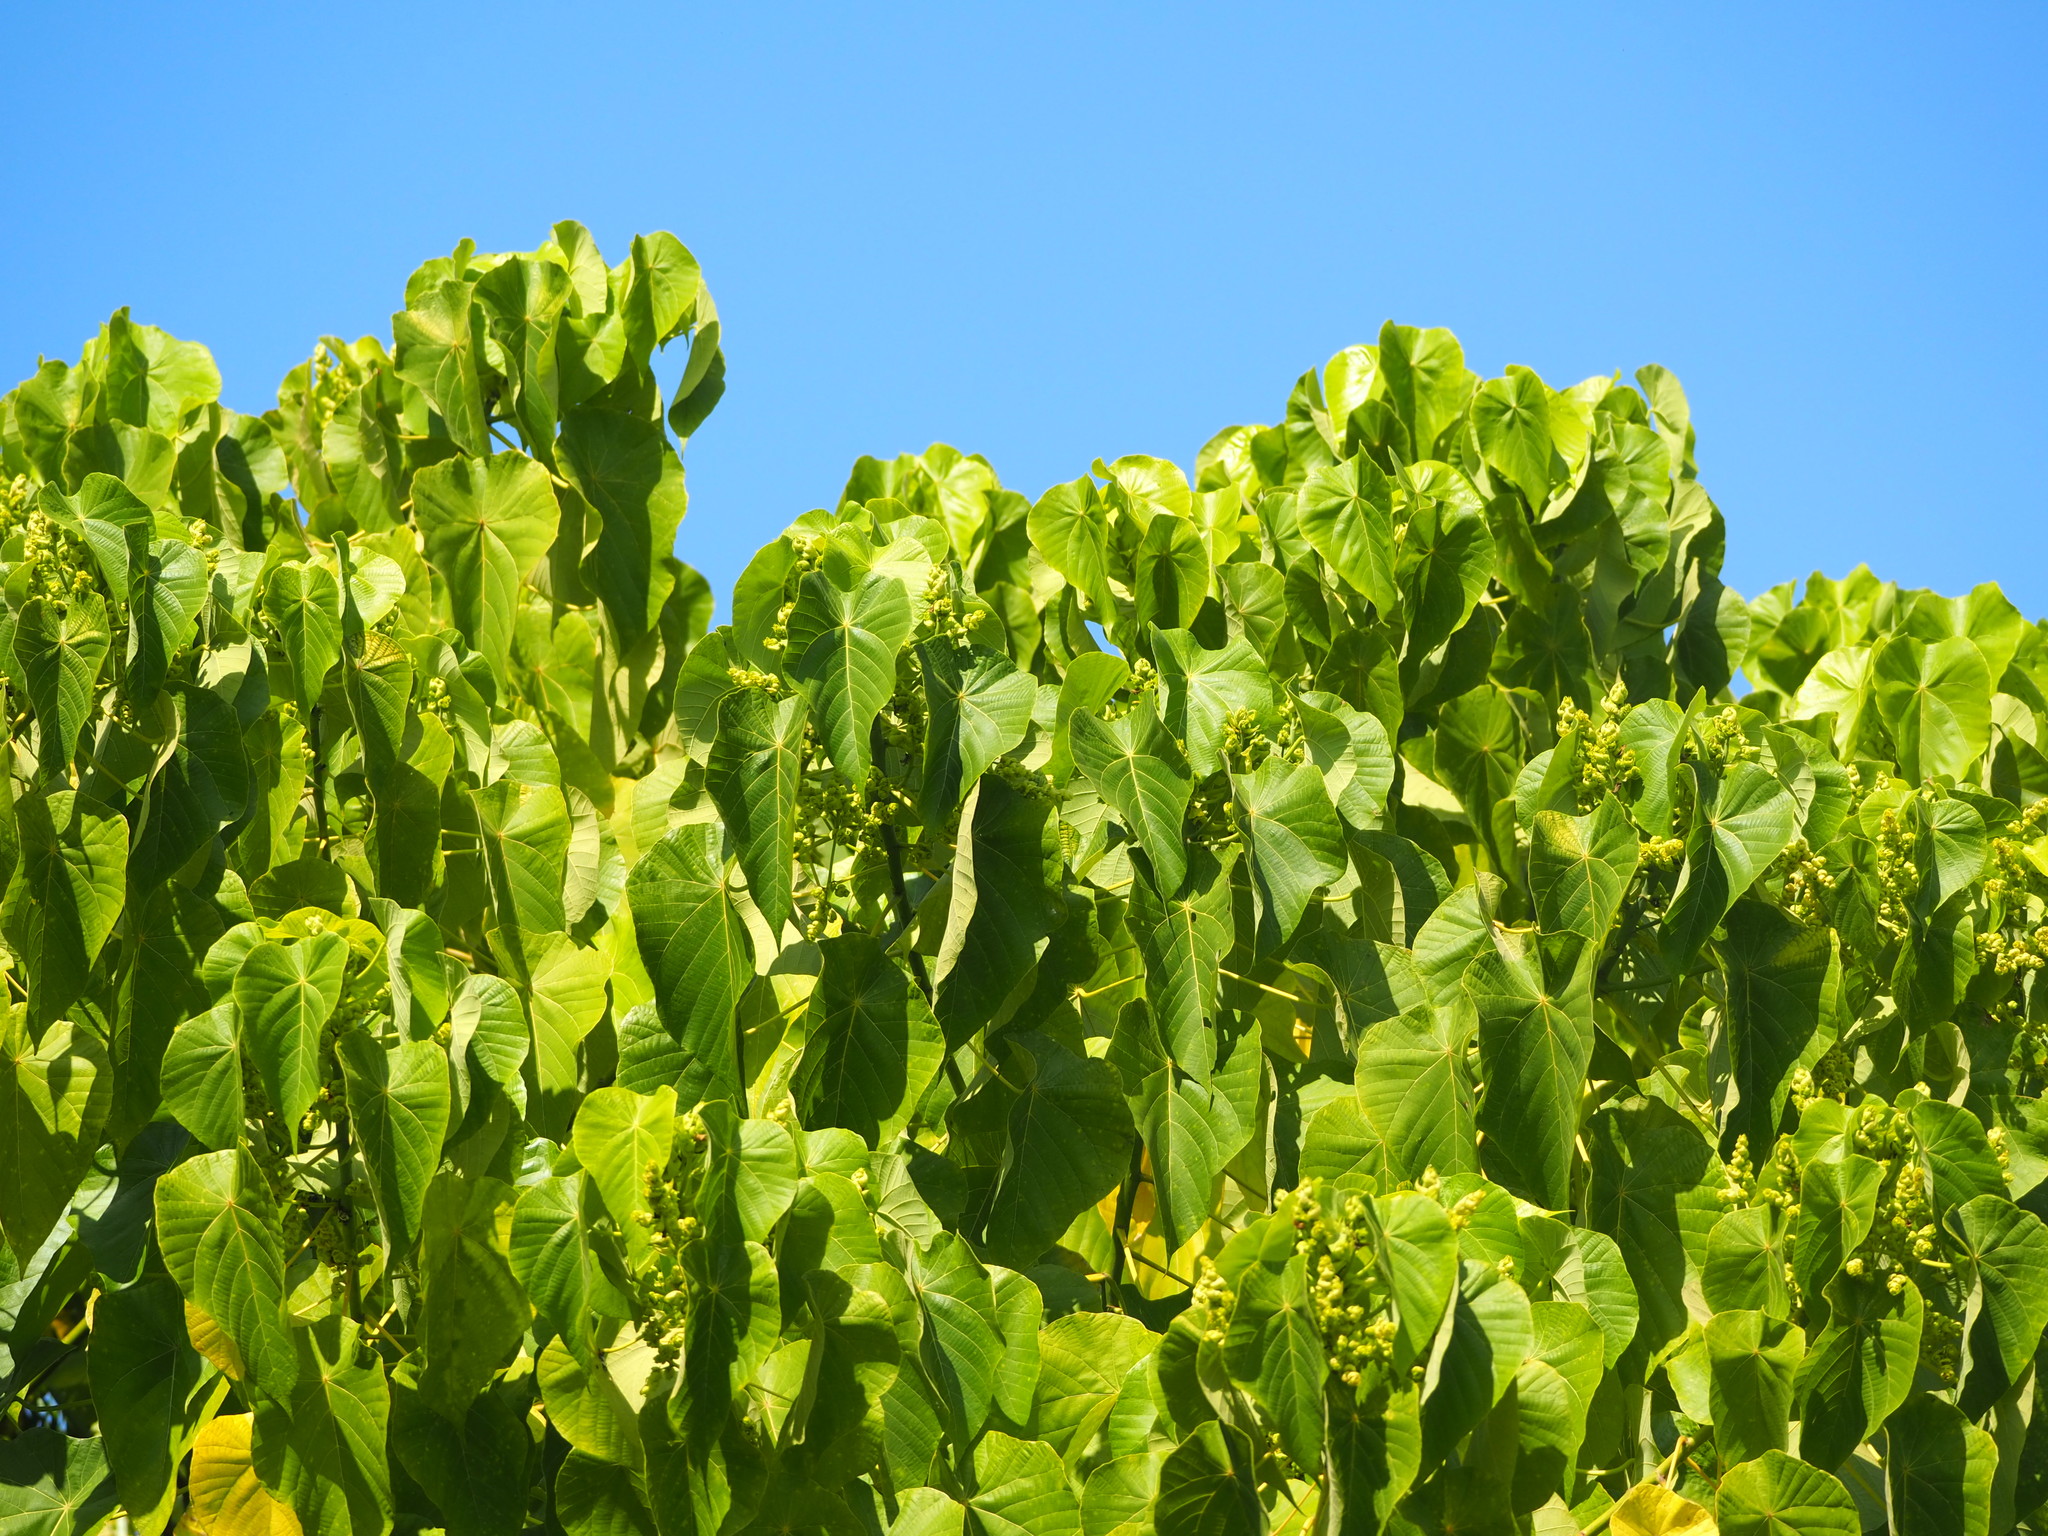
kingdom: Plantae
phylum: Tracheophyta
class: Magnoliopsida
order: Malpighiales
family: Euphorbiaceae
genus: Macaranga
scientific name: Macaranga tanarius
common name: Parasol leaf tree
